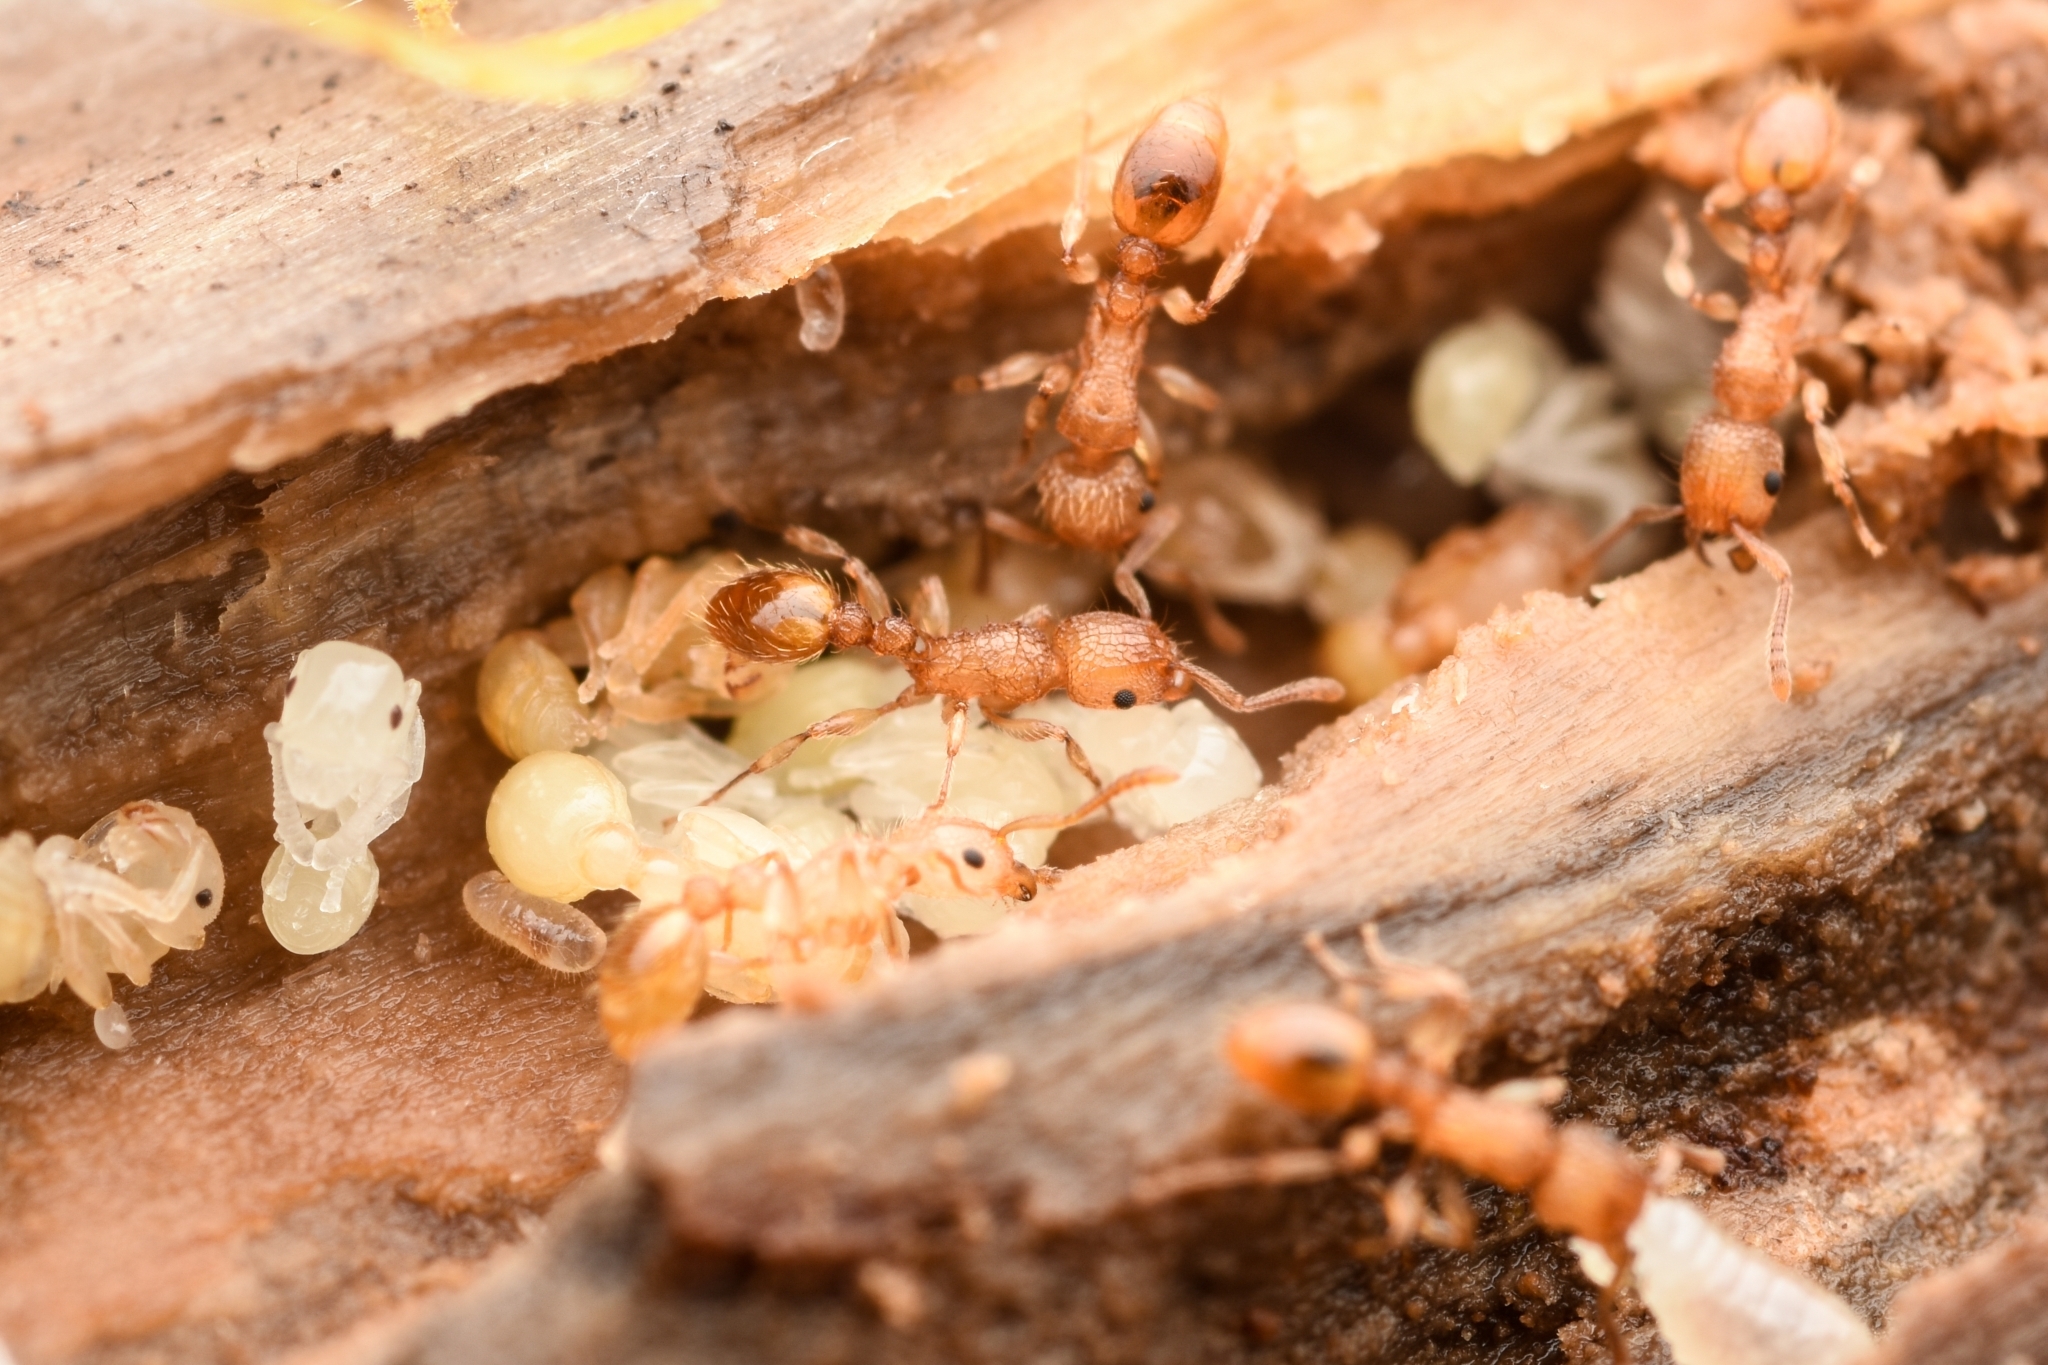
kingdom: Animalia
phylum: Arthropoda
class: Insecta
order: Hymenoptera
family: Formicidae
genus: Tetramorium
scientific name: Tetramorium nipponense
